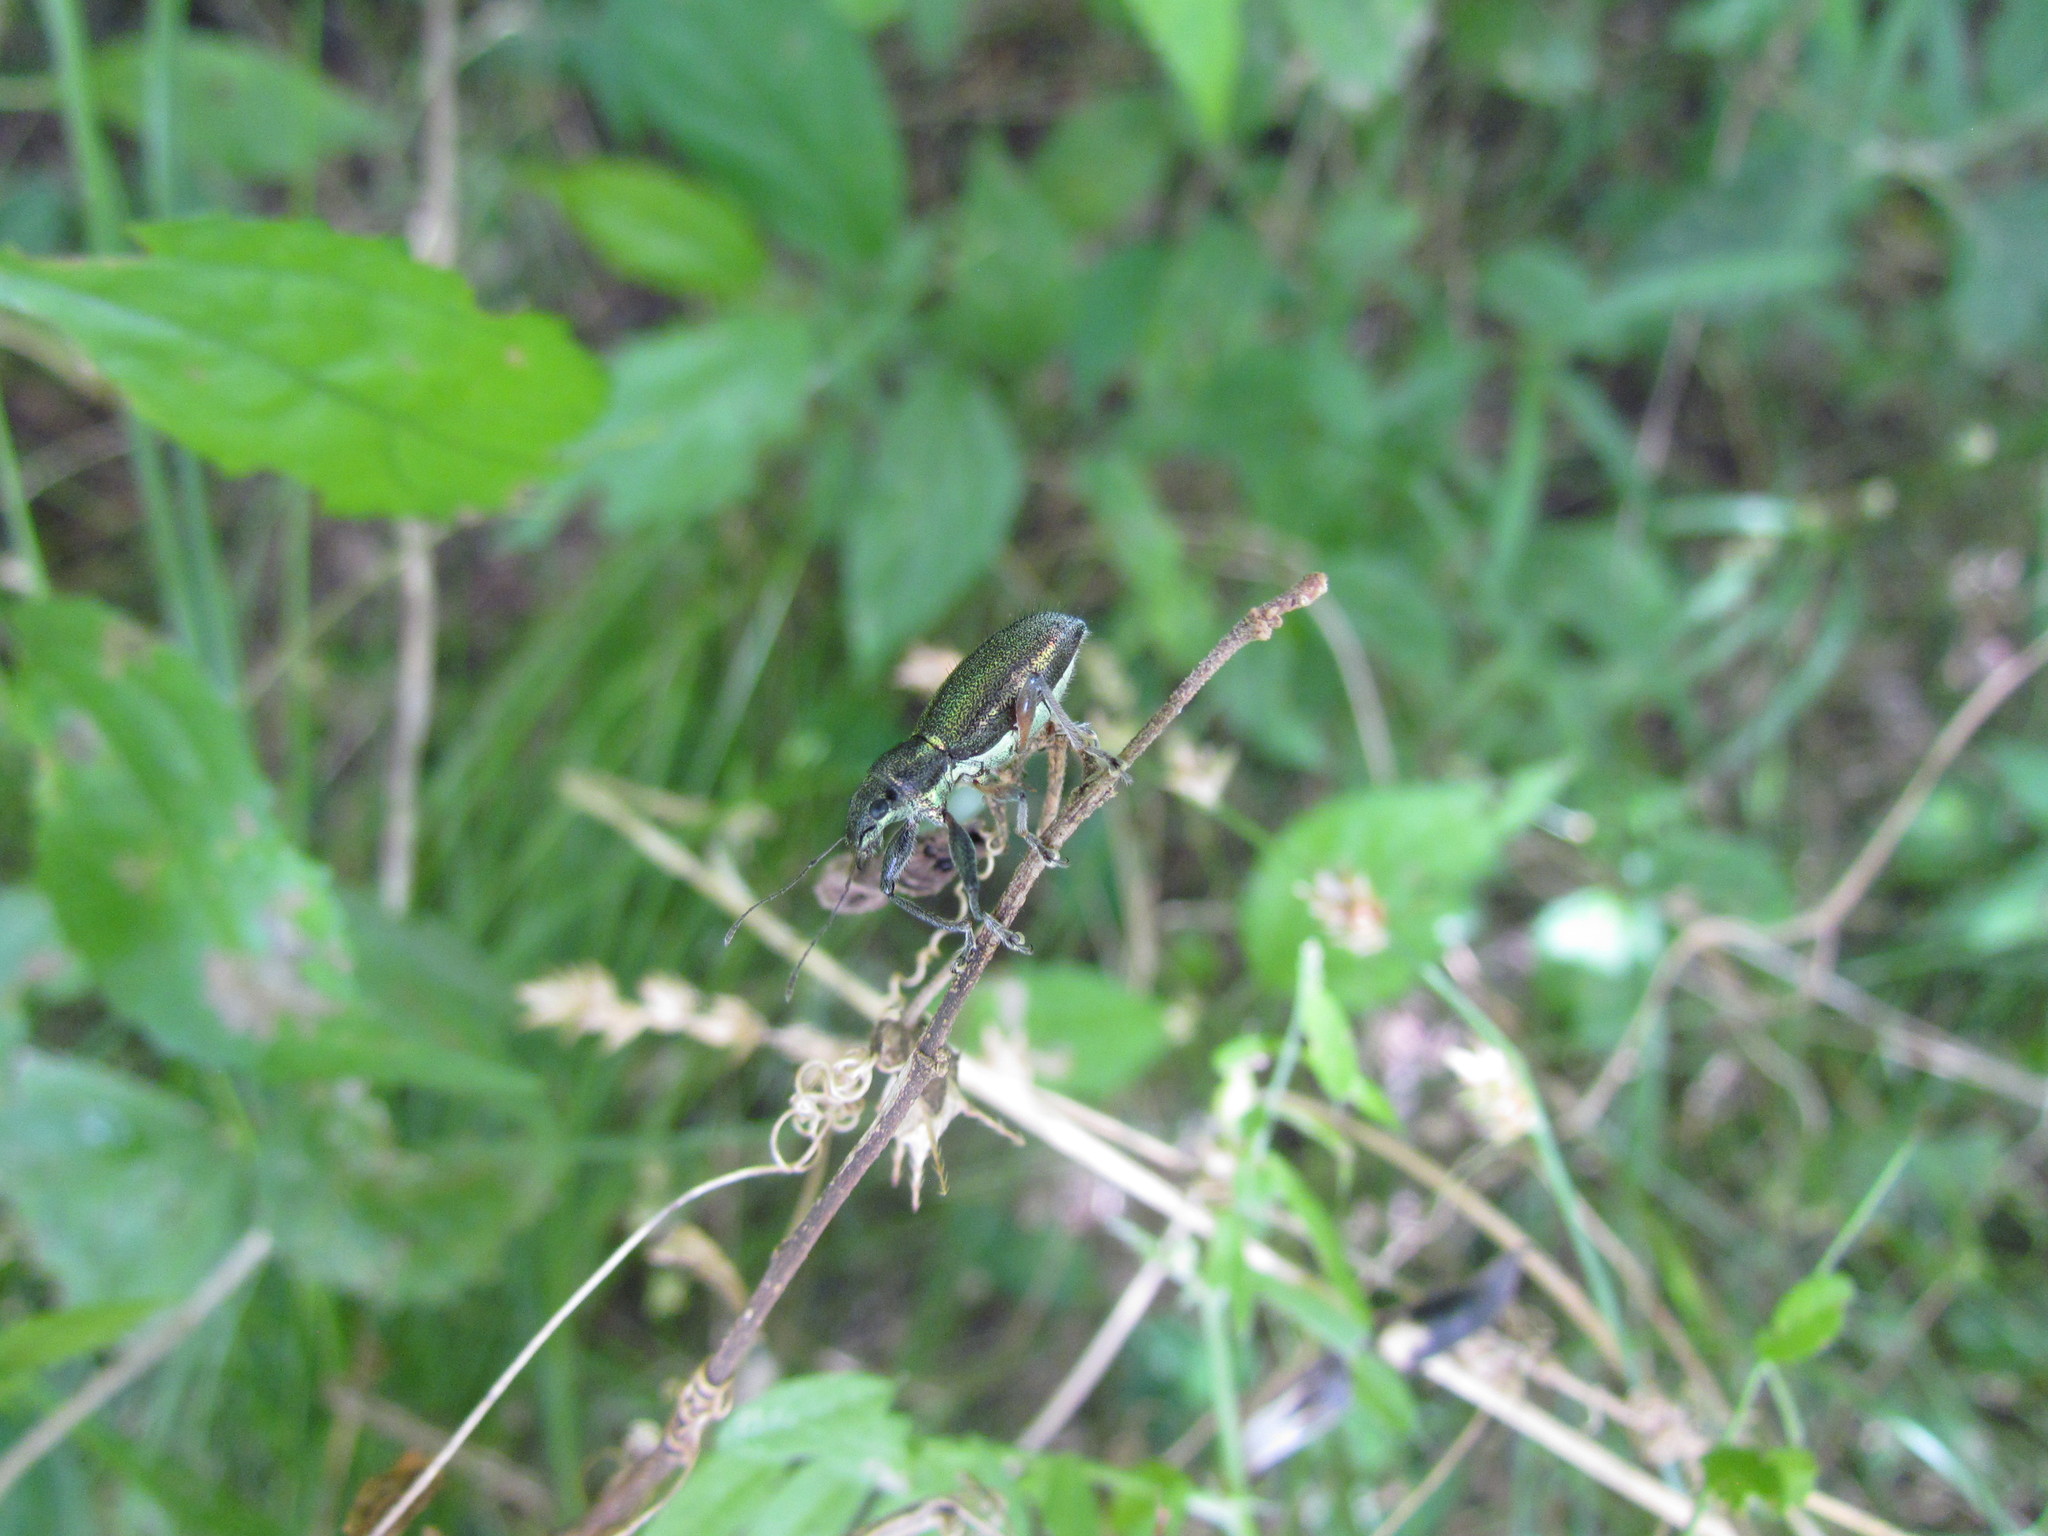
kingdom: Animalia
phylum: Arthropoda
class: Insecta
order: Coleoptera
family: Curculionidae
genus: Naupactus
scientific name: Naupactus auricinctus
